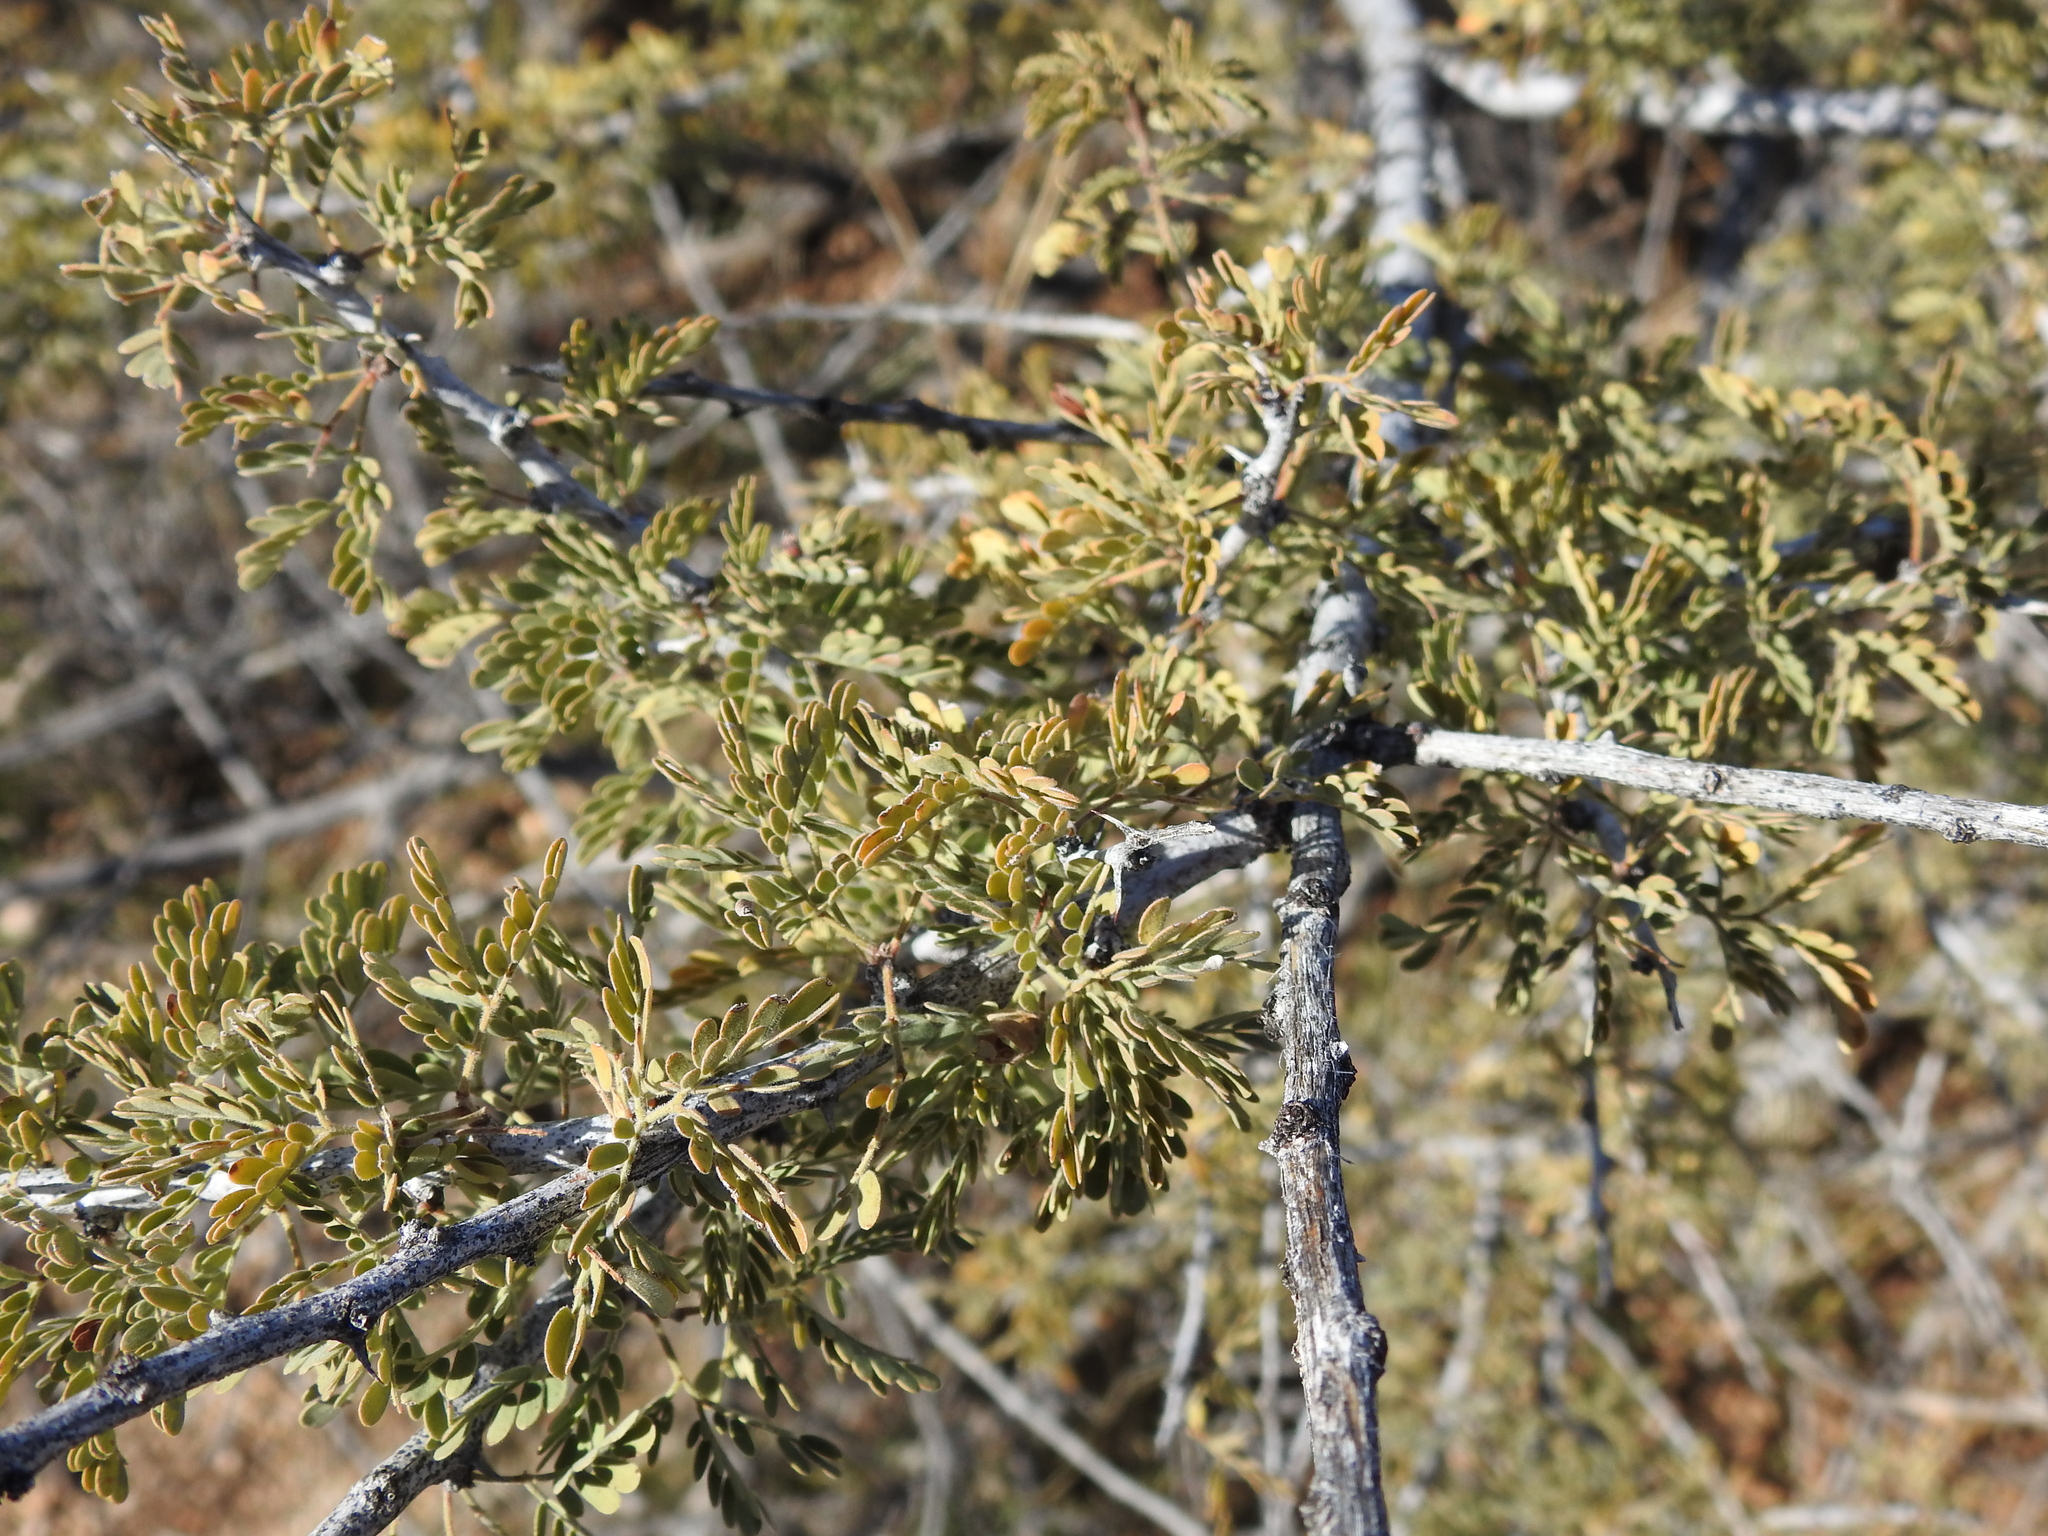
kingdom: Plantae
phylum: Tracheophyta
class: Magnoliopsida
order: Fabales
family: Fabaceae
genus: Senegalia
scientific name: Senegalia greggii
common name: Texas-mimosa
